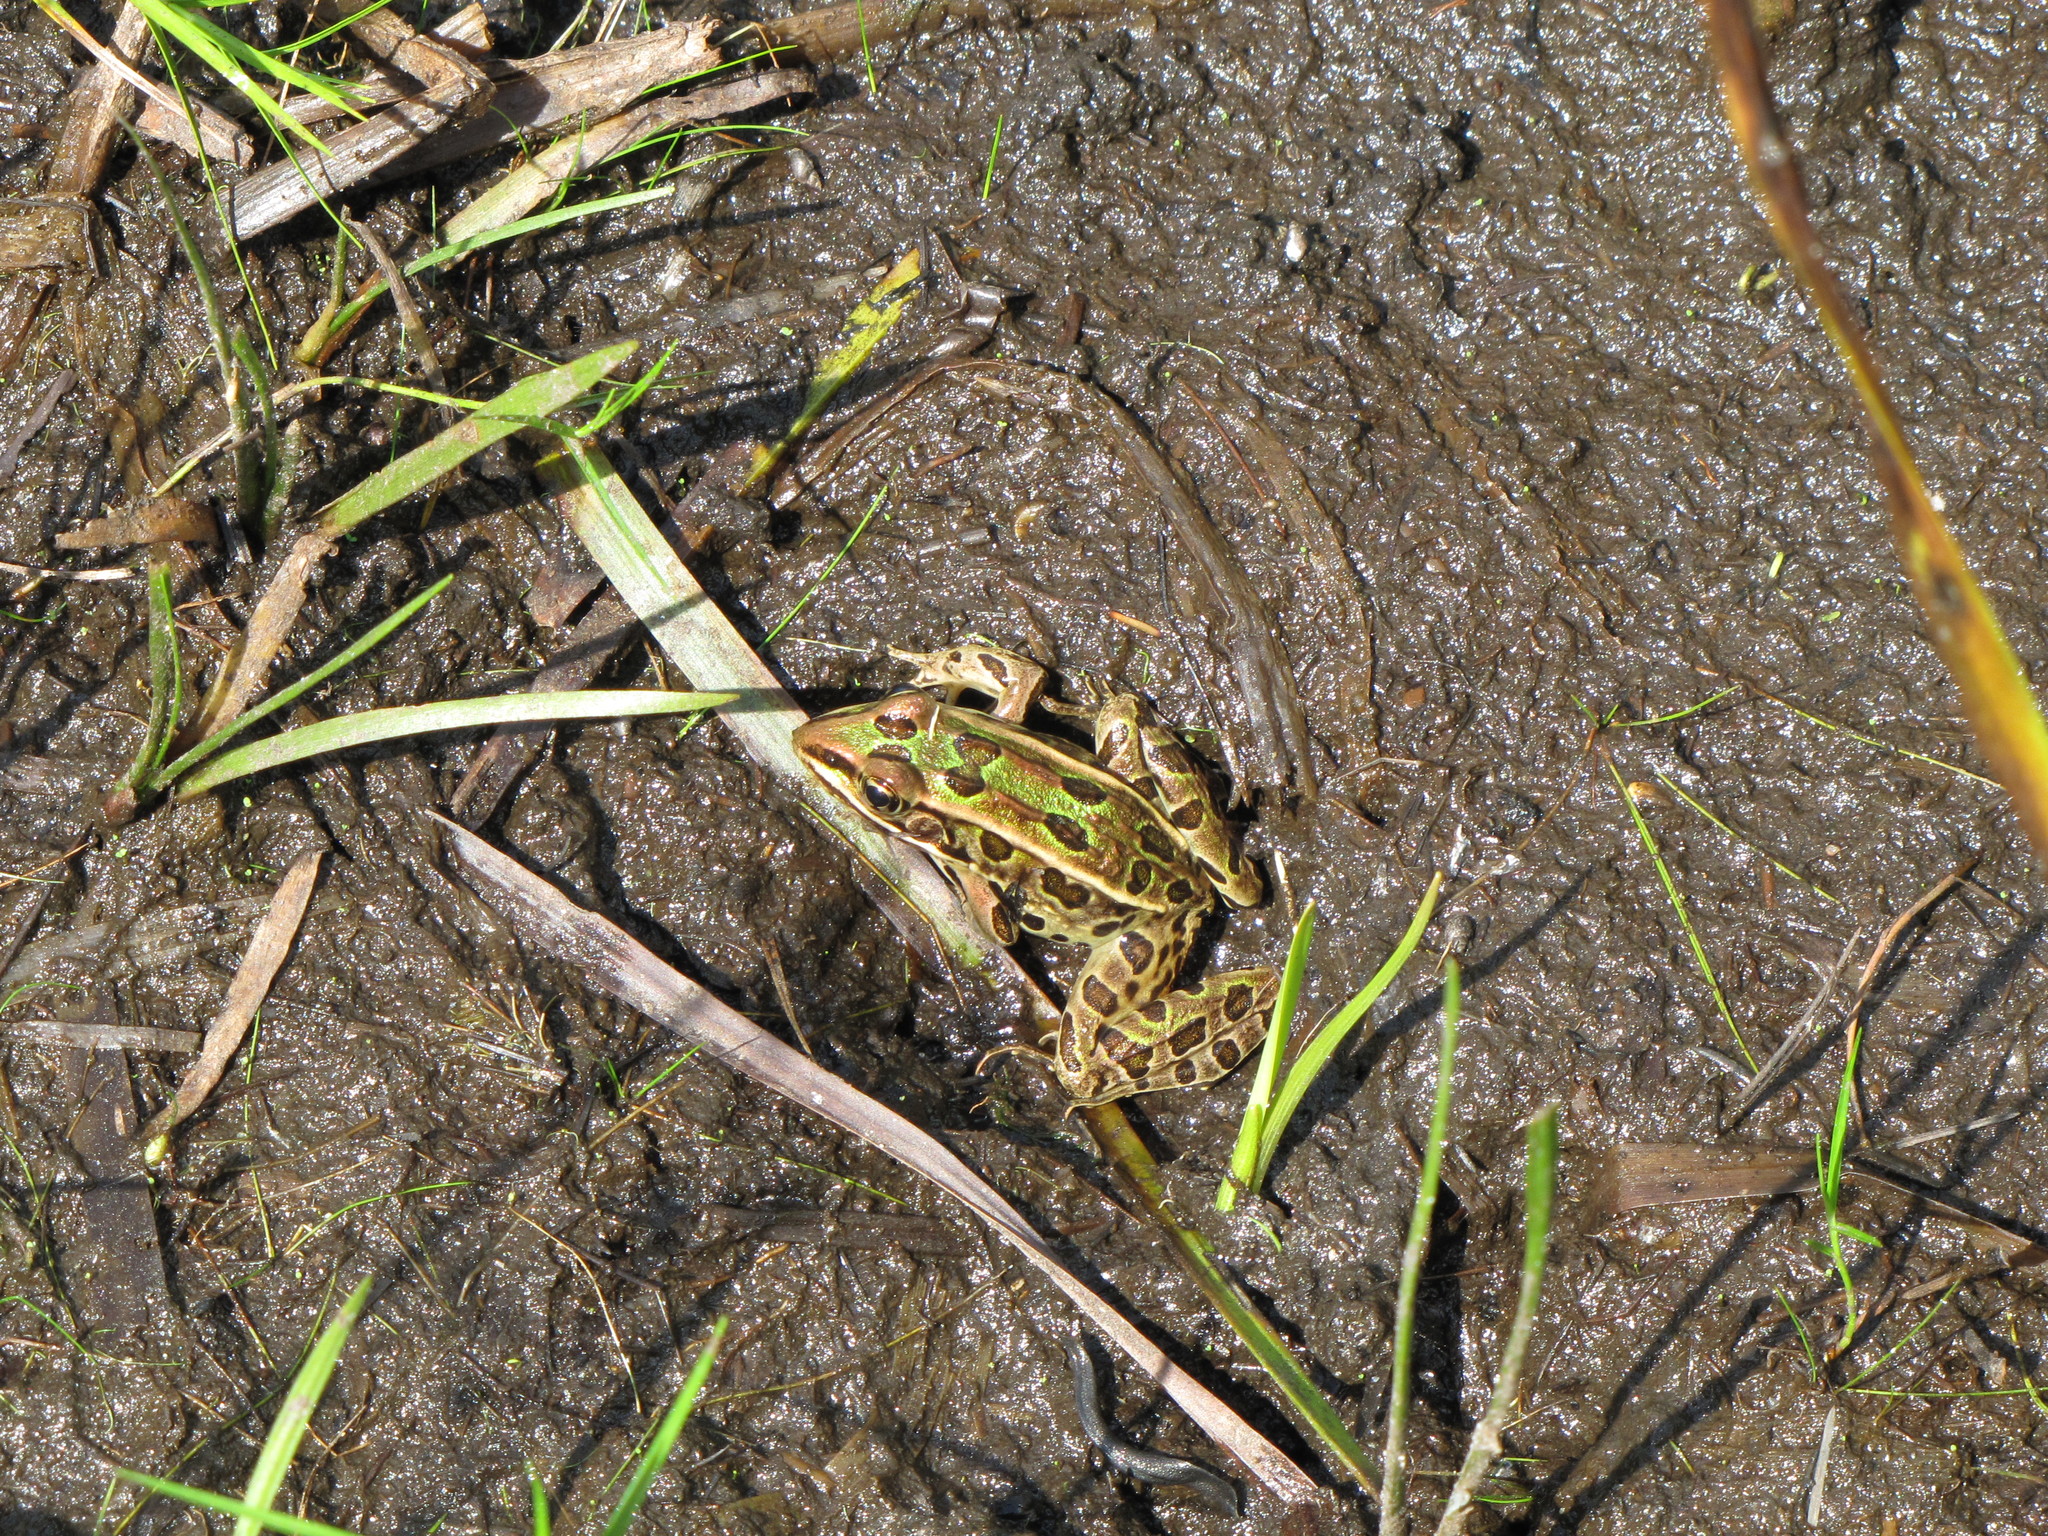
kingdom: Animalia
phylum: Chordata
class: Amphibia
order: Anura
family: Ranidae
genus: Lithobates
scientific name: Lithobates pipiens
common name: Northern leopard frog
